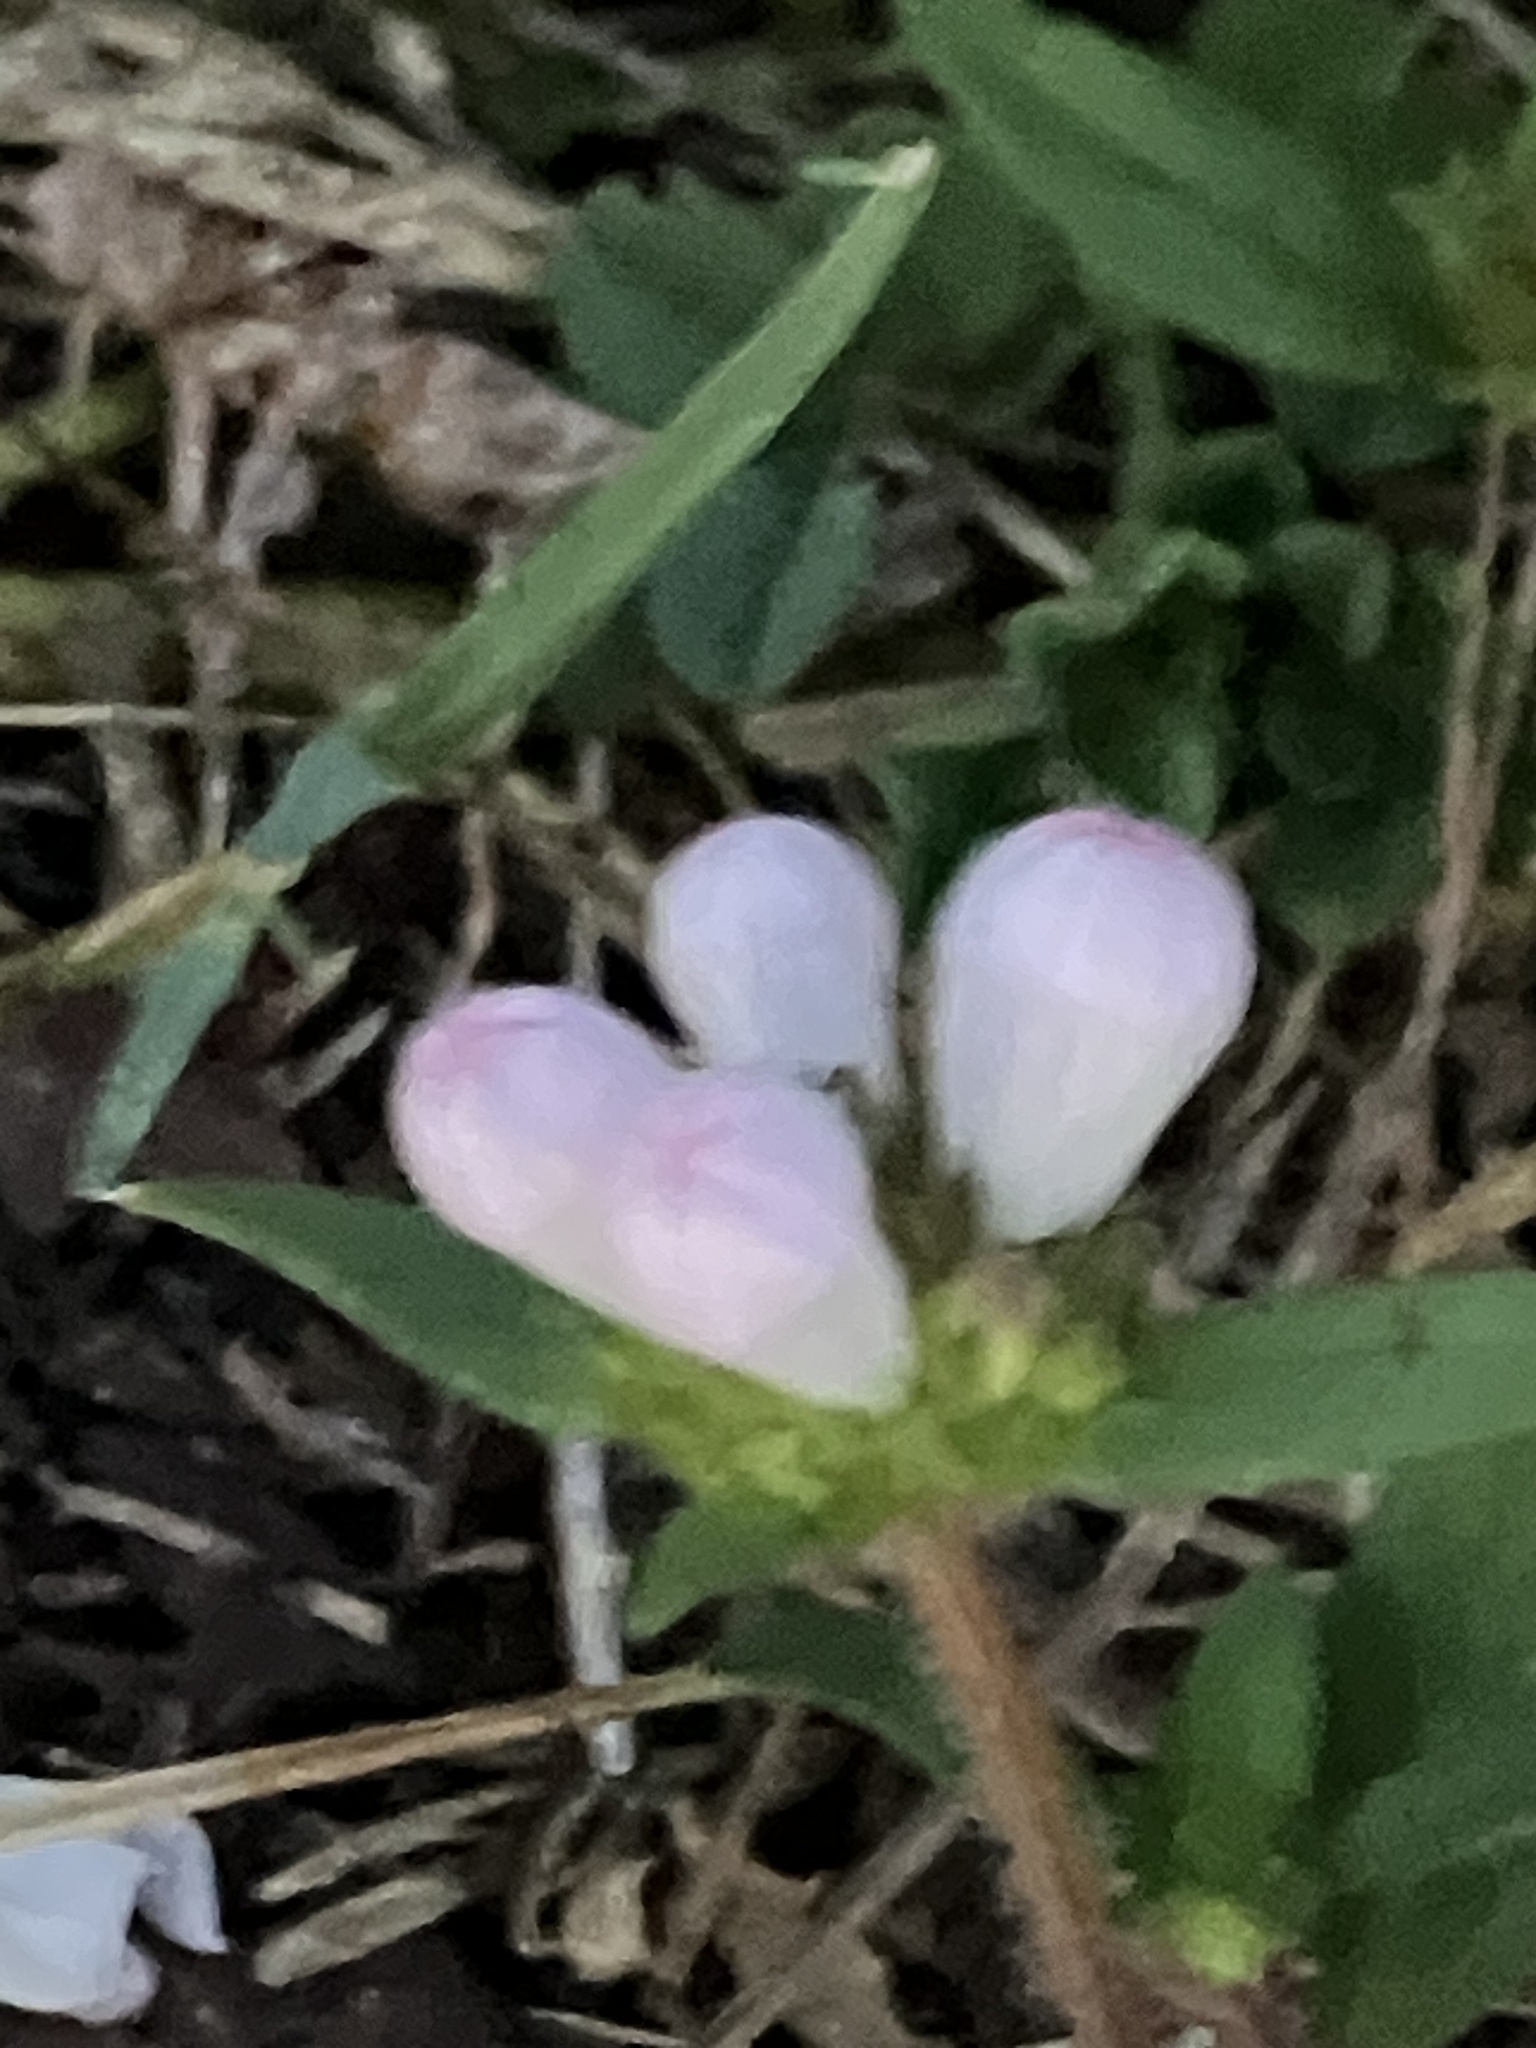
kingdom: Plantae
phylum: Tracheophyta
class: Magnoliopsida
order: Gentianales
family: Rubiaceae
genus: Richardia
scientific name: Richardia grandiflora
